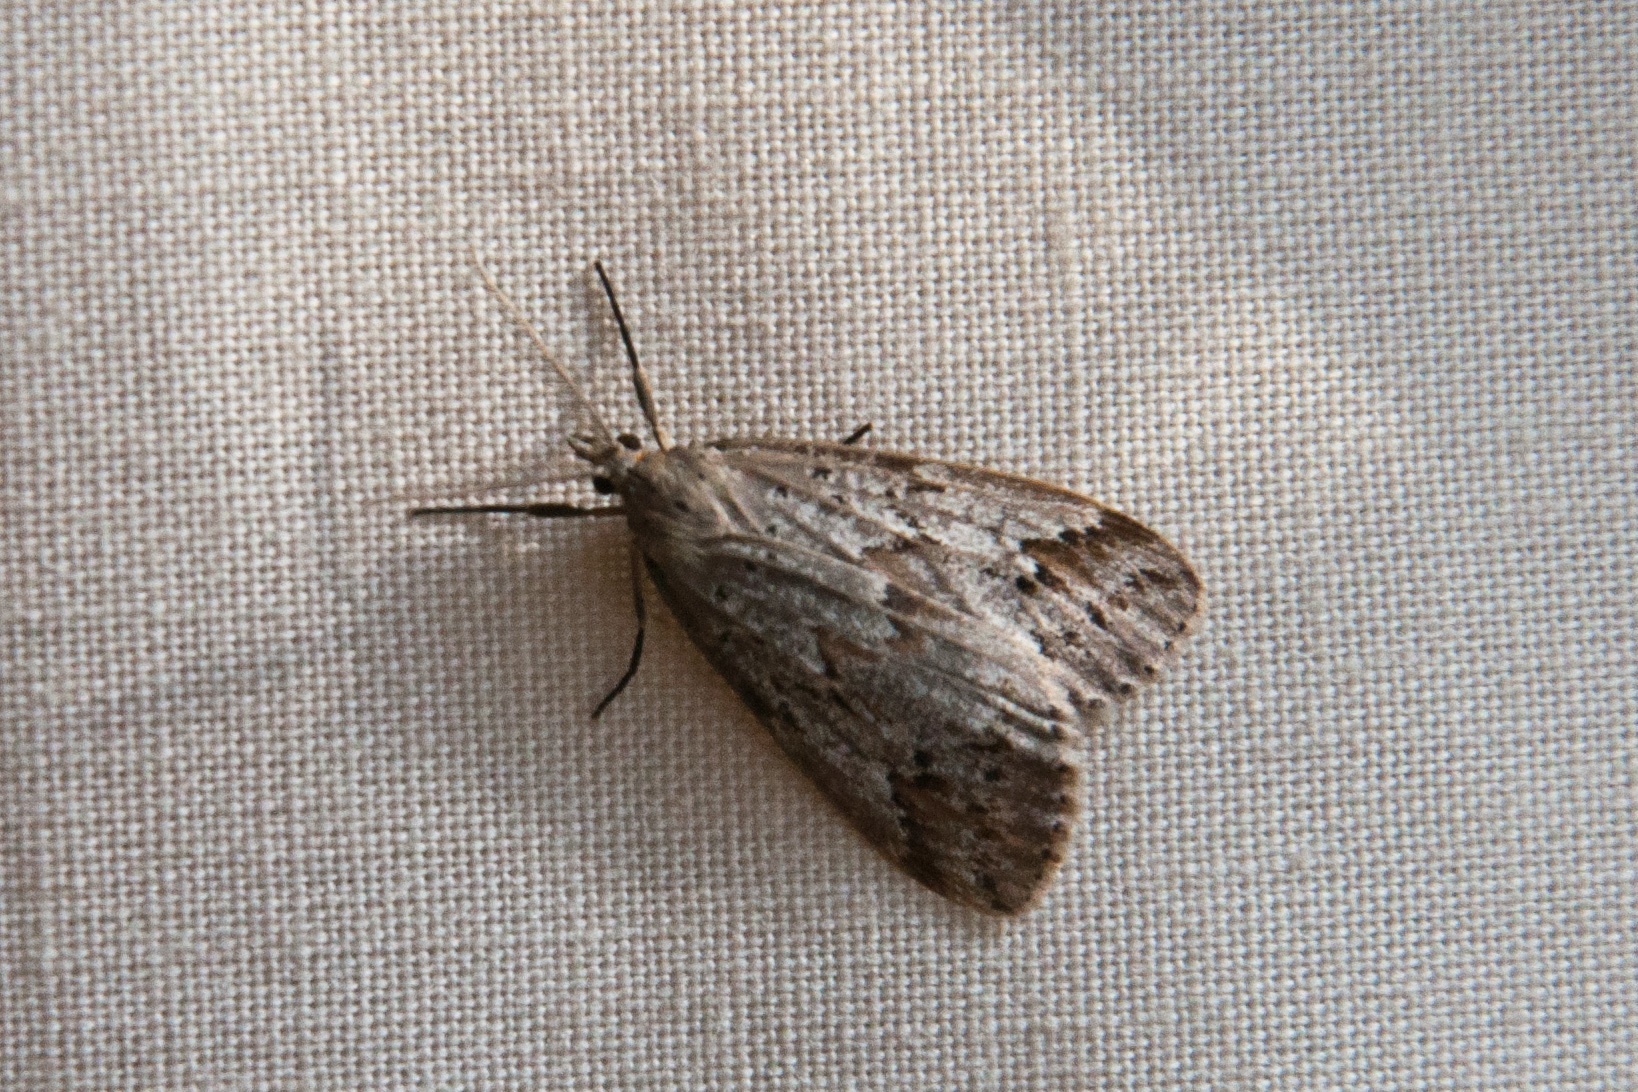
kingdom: Animalia
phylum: Arthropoda
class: Insecta
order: Lepidoptera
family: Erebidae
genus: Galtara
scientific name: Galtara rostrata
